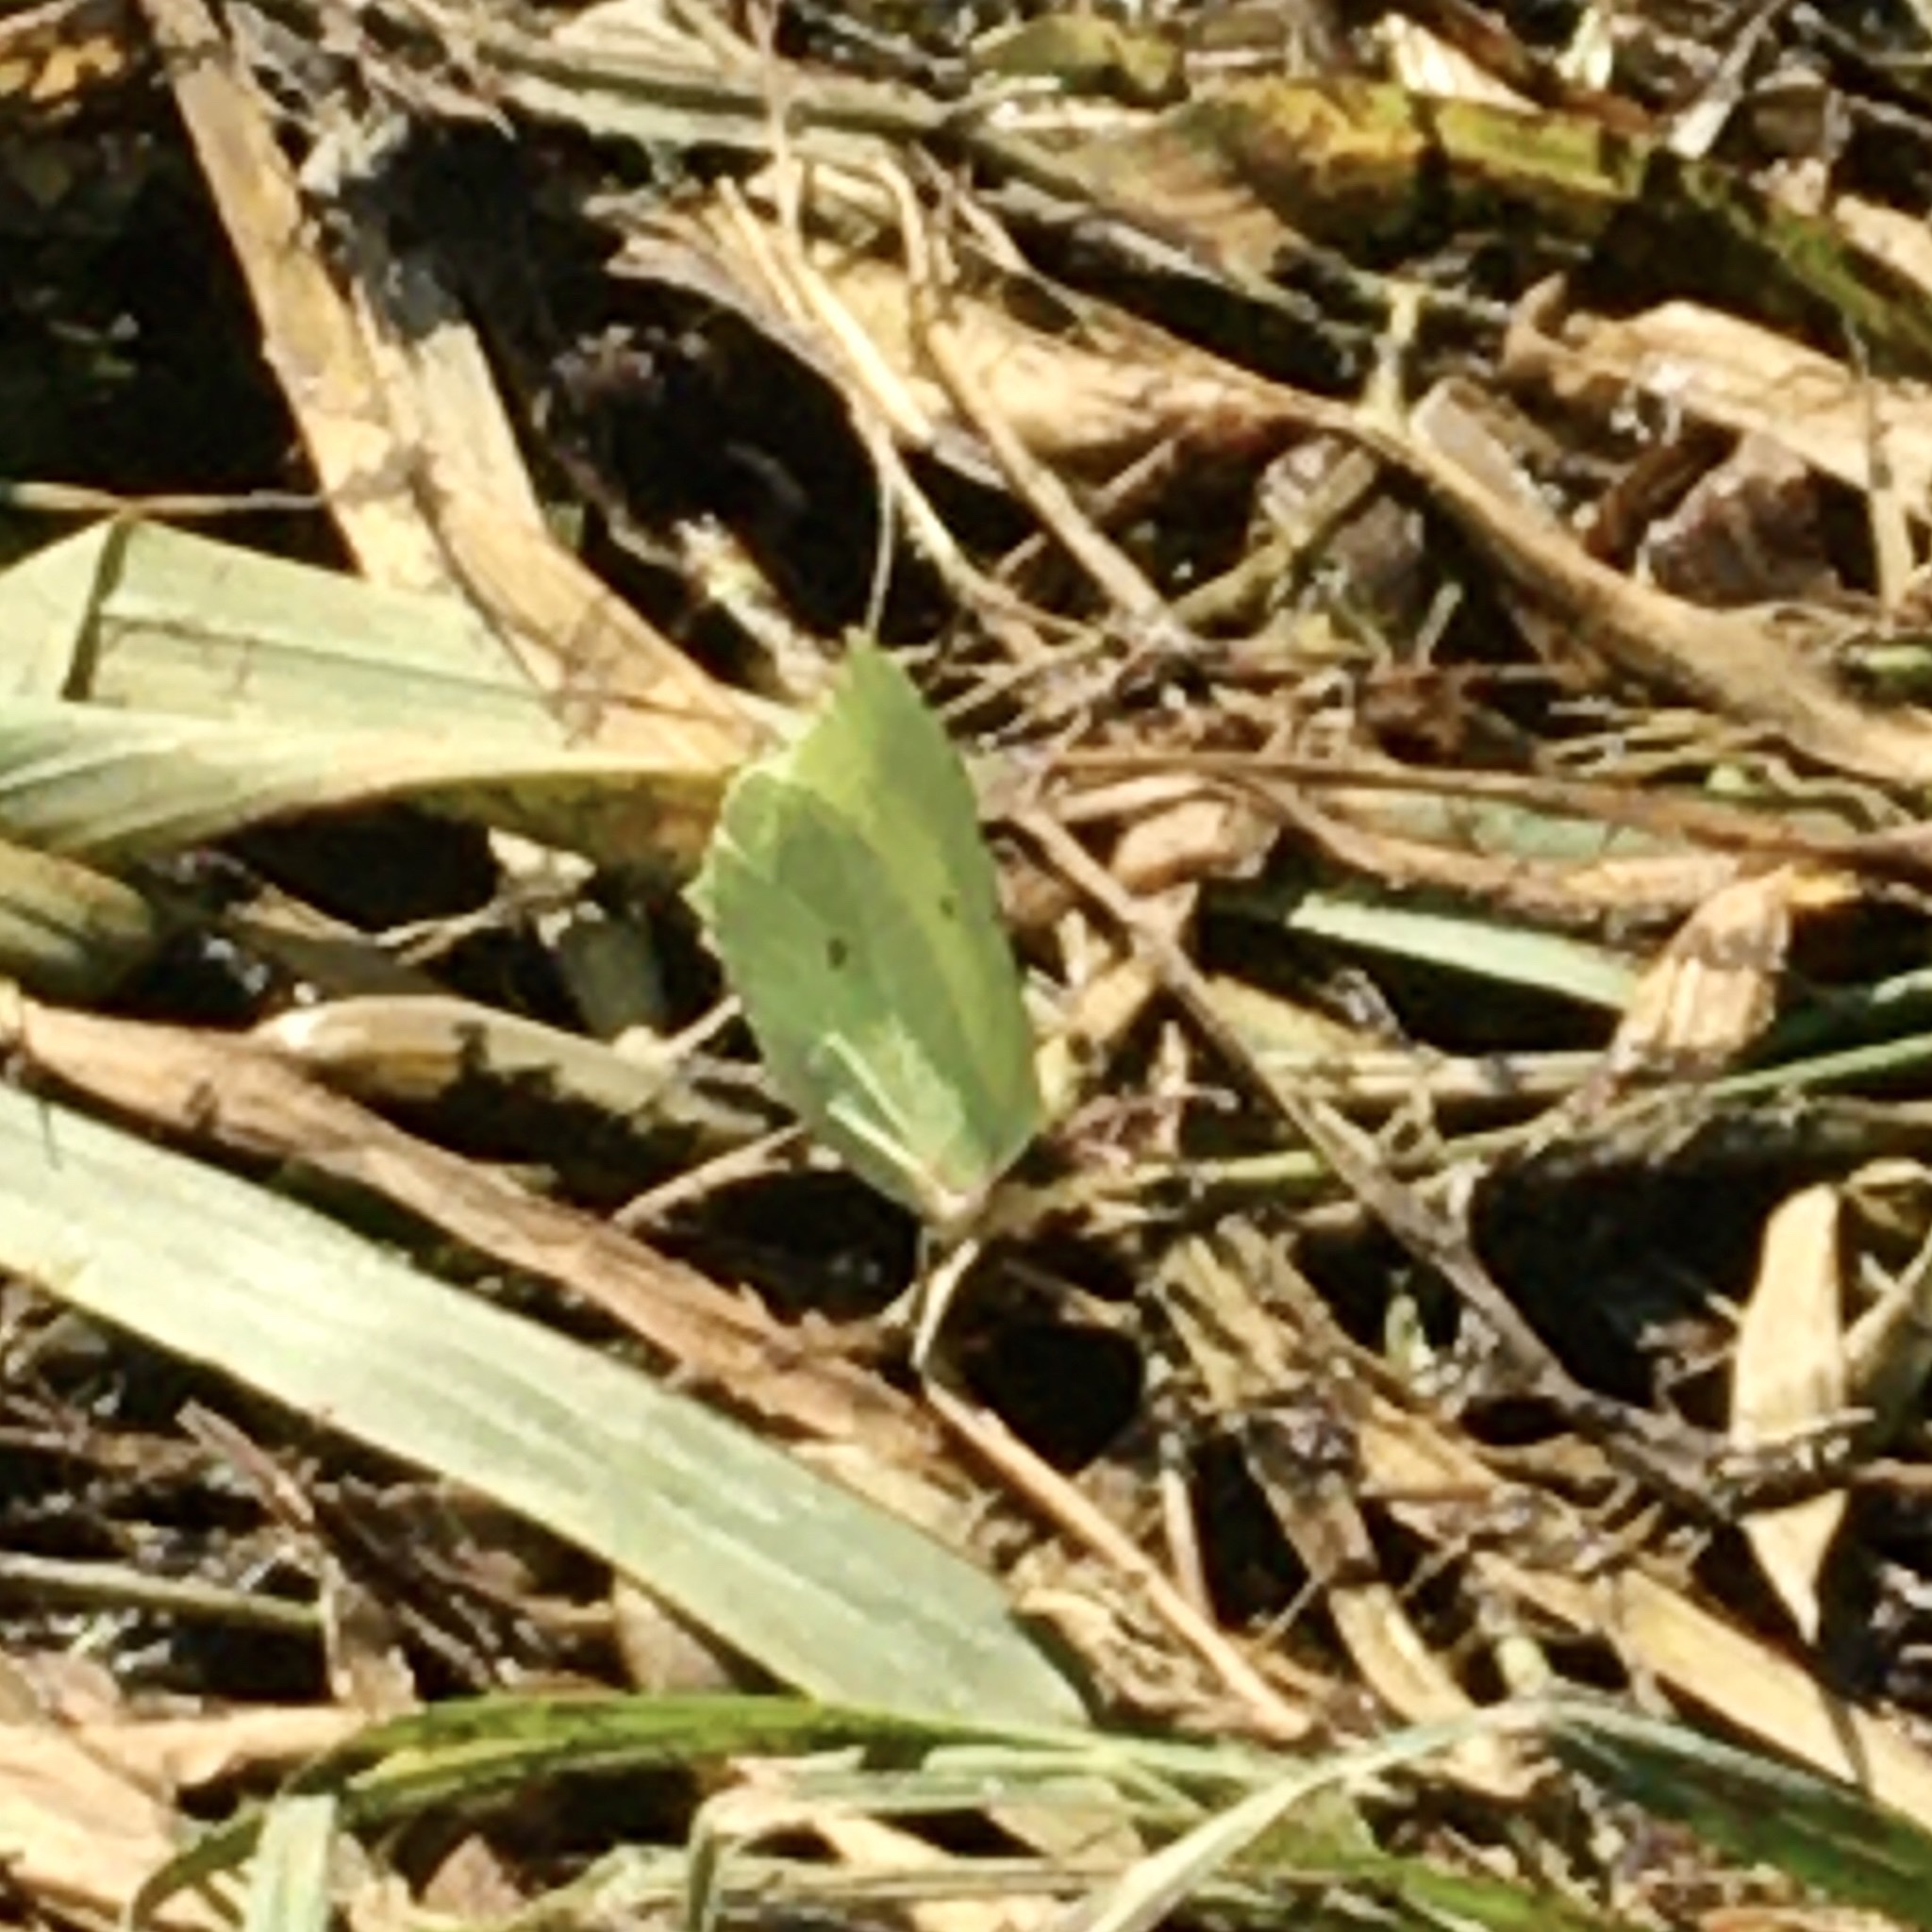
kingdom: Animalia
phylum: Arthropoda
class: Insecta
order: Lepidoptera
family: Pieridae
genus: Gonepteryx
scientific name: Gonepteryx rhamni
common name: Brimstone
